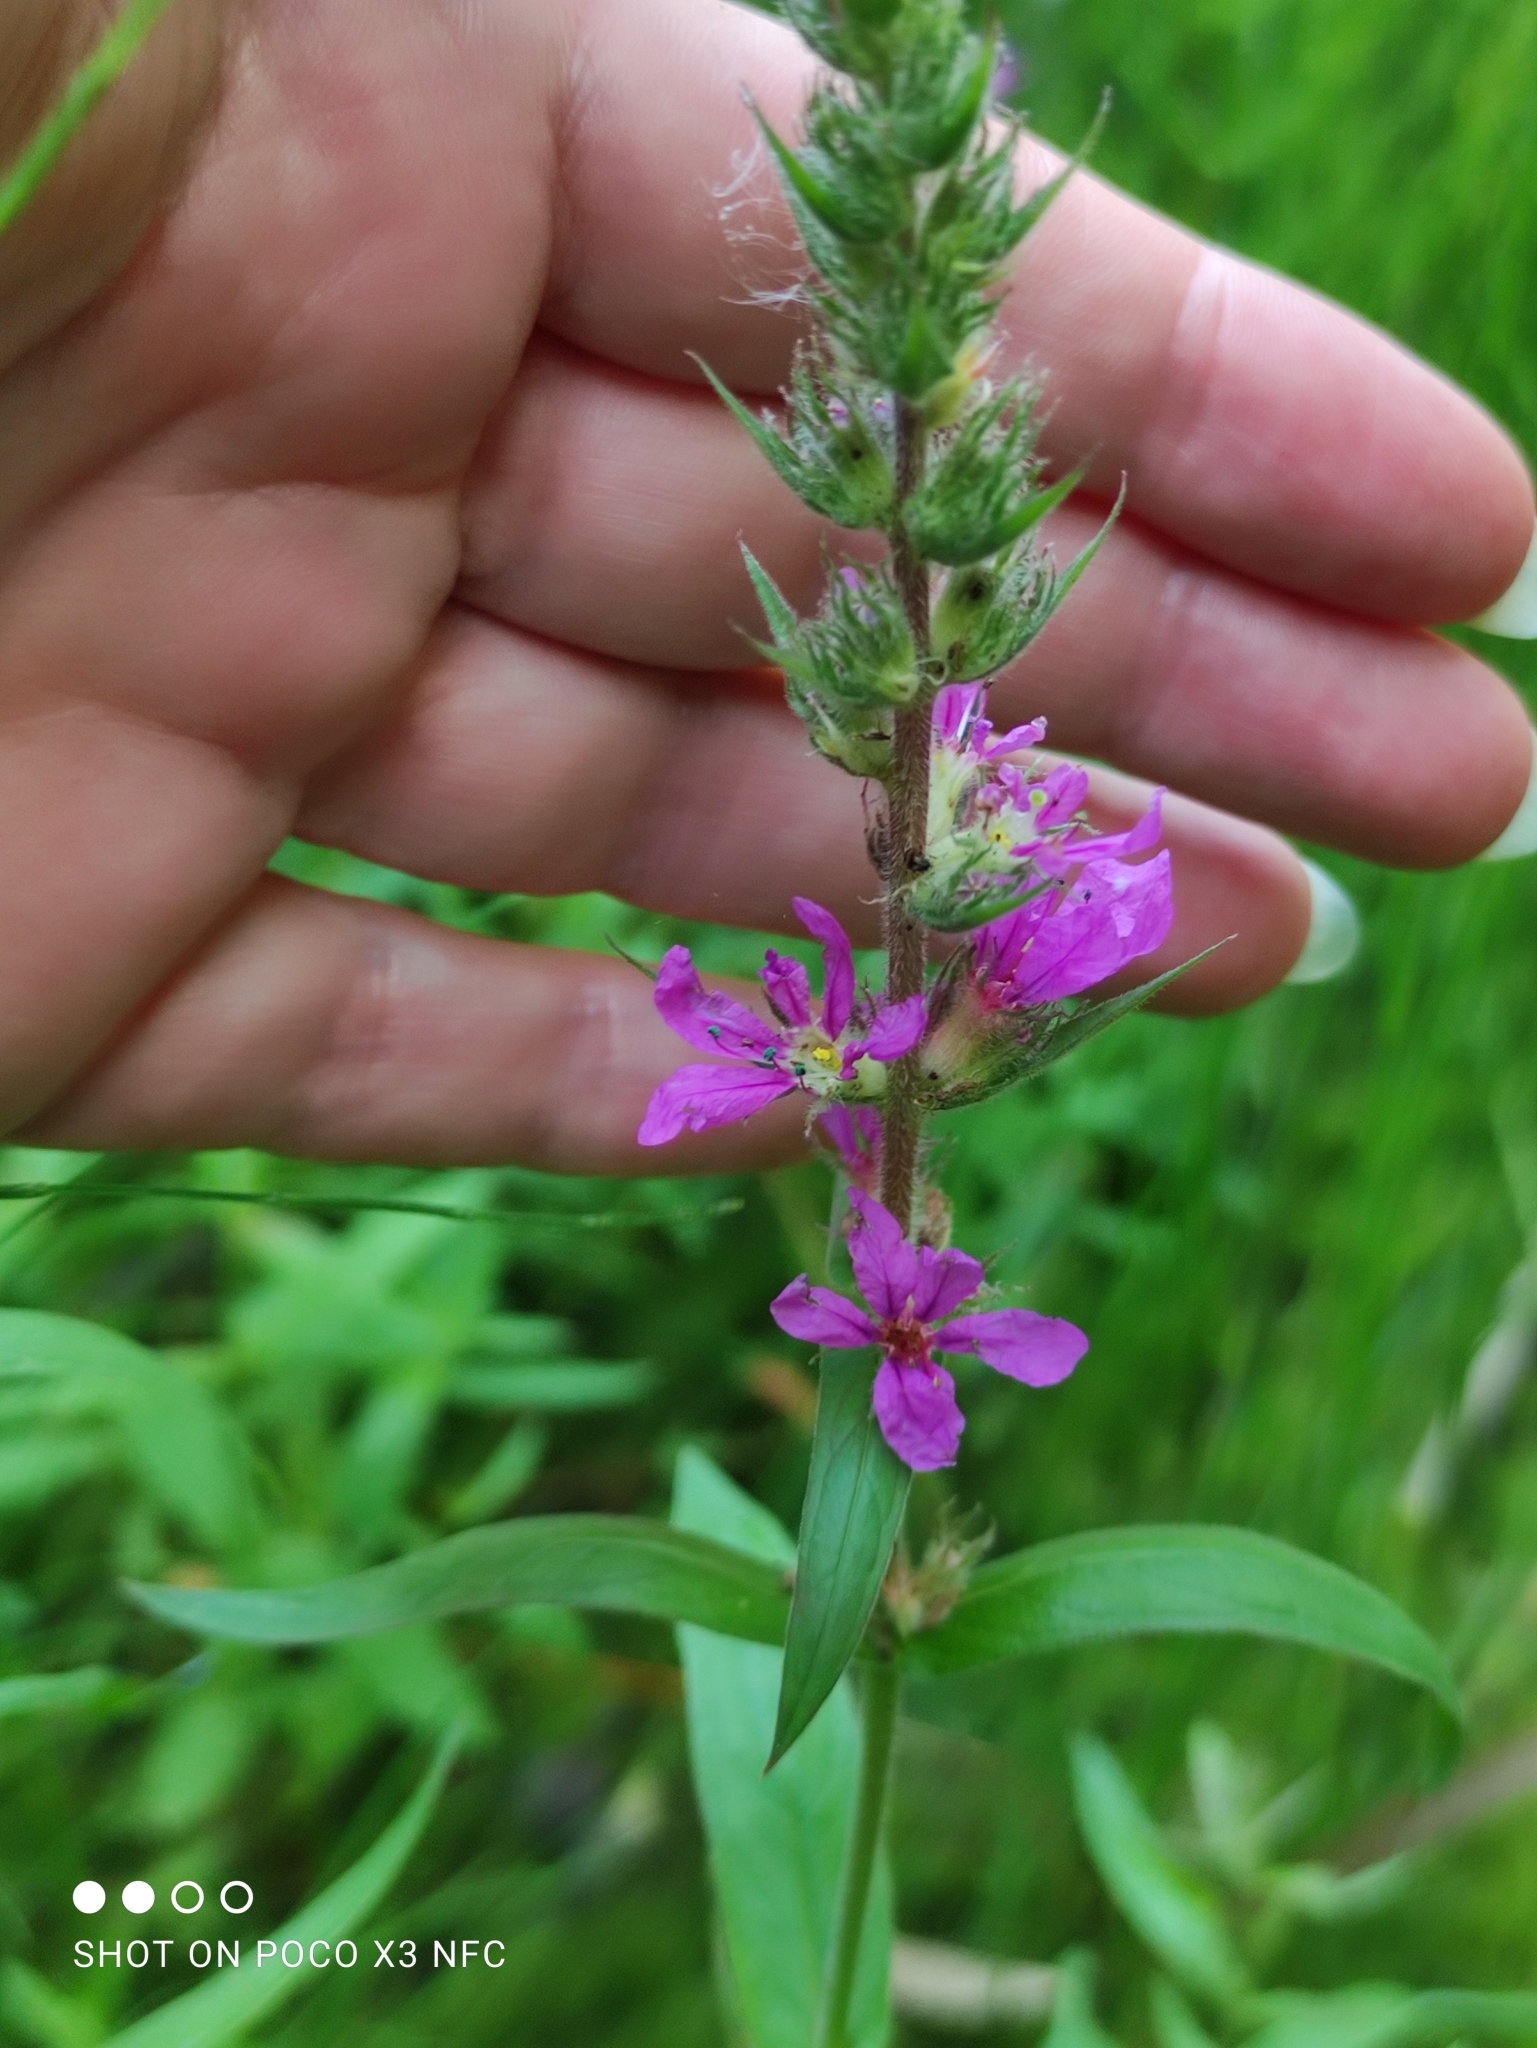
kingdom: Plantae
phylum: Tracheophyta
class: Magnoliopsida
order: Myrtales
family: Lythraceae
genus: Lythrum
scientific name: Lythrum salicaria
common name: Purple loosestrife
